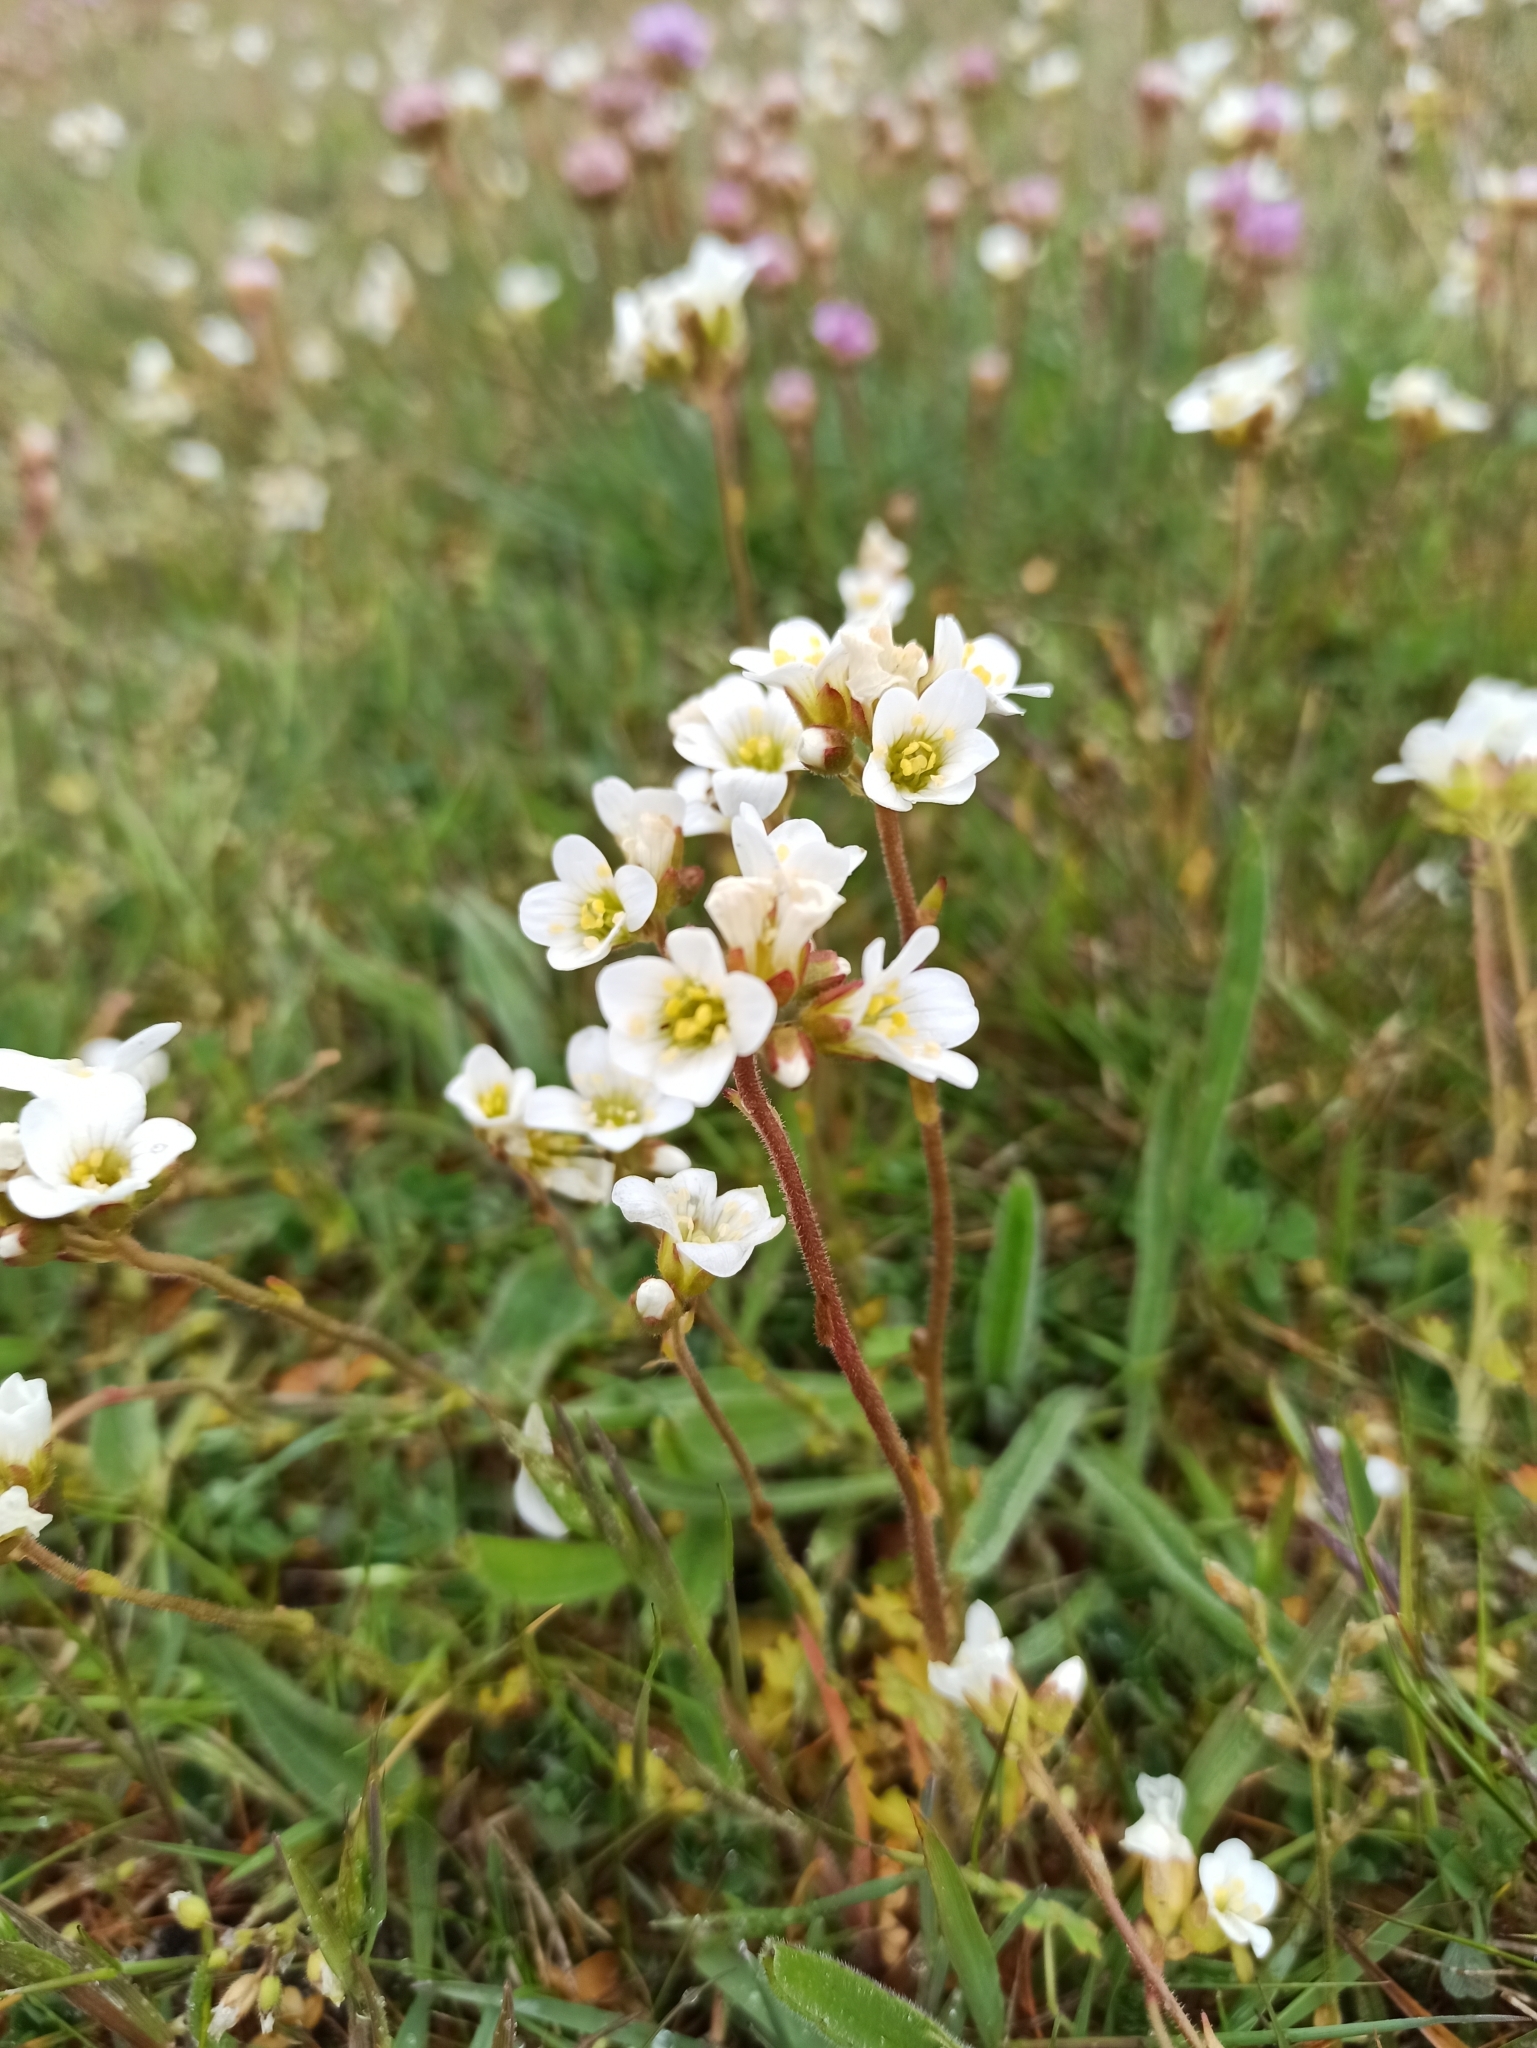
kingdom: Plantae
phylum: Tracheophyta
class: Magnoliopsida
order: Saxifragales
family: Saxifragaceae
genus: Saxifraga
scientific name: Saxifraga granulata
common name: Meadow saxifrage
